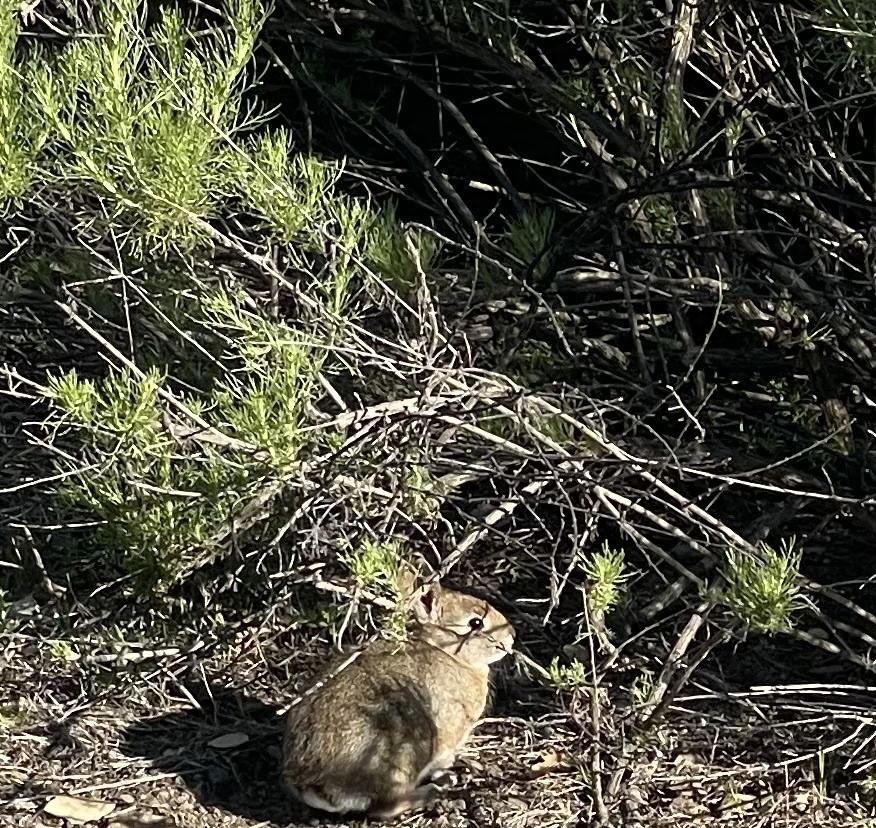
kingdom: Animalia
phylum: Chordata
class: Mammalia
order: Lagomorpha
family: Leporidae
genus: Sylvilagus
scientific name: Sylvilagus bachmani
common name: Brush rabbit
